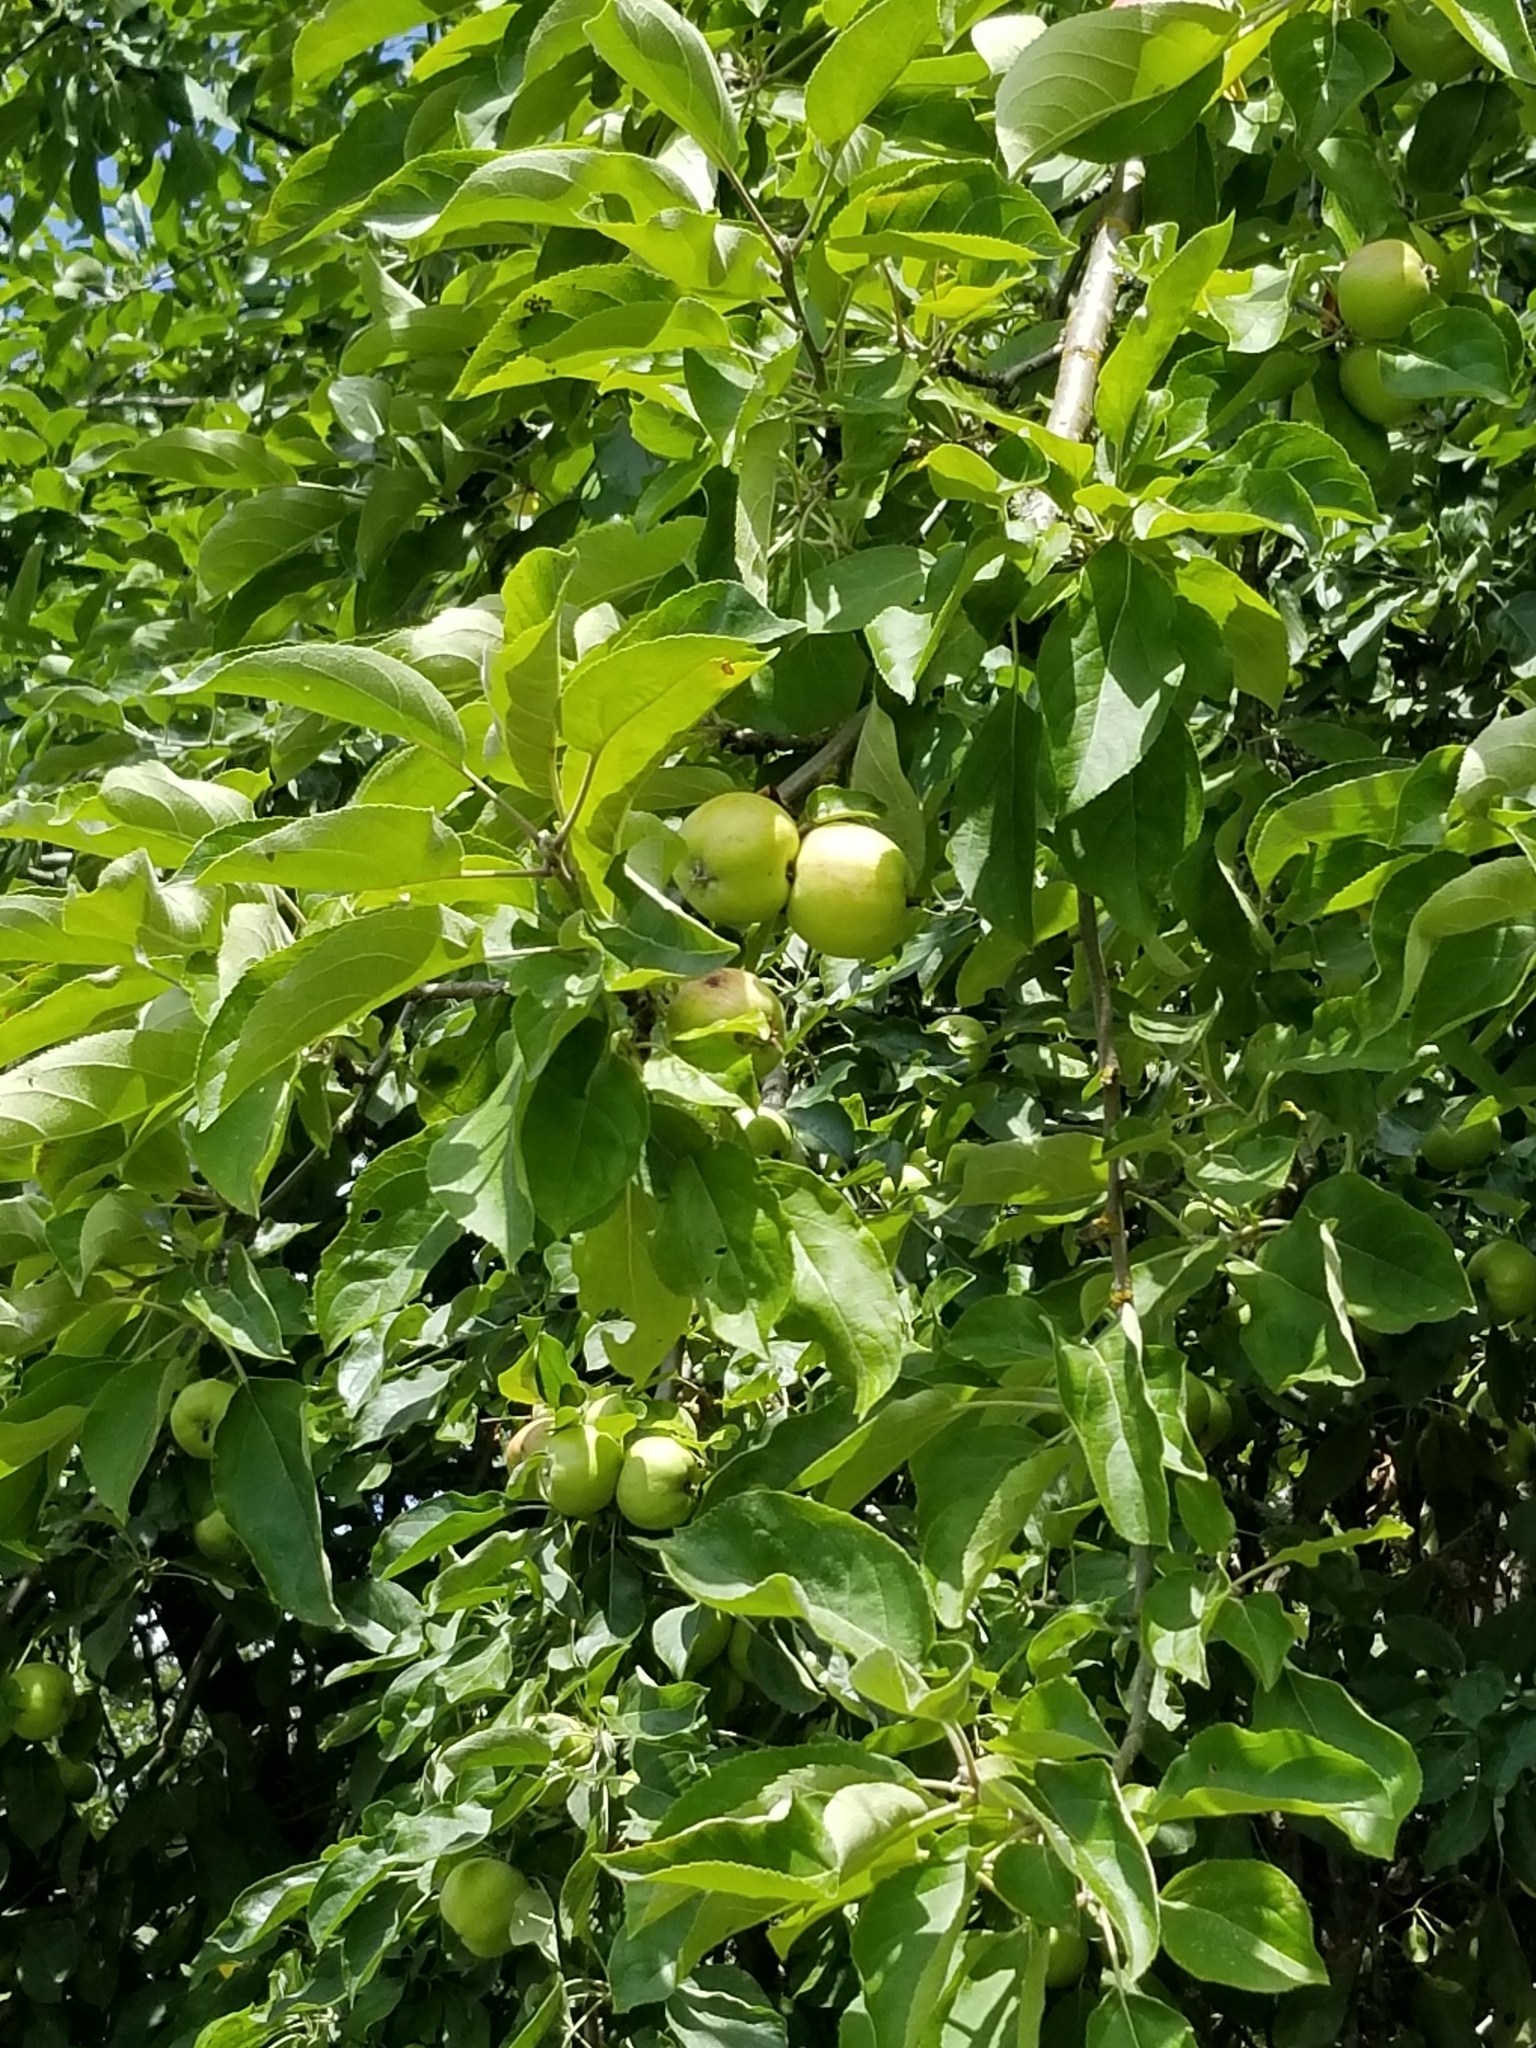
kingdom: Plantae
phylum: Tracheophyta
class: Magnoliopsida
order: Rosales
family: Rosaceae
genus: Malus
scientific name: Malus domestica
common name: Apple
